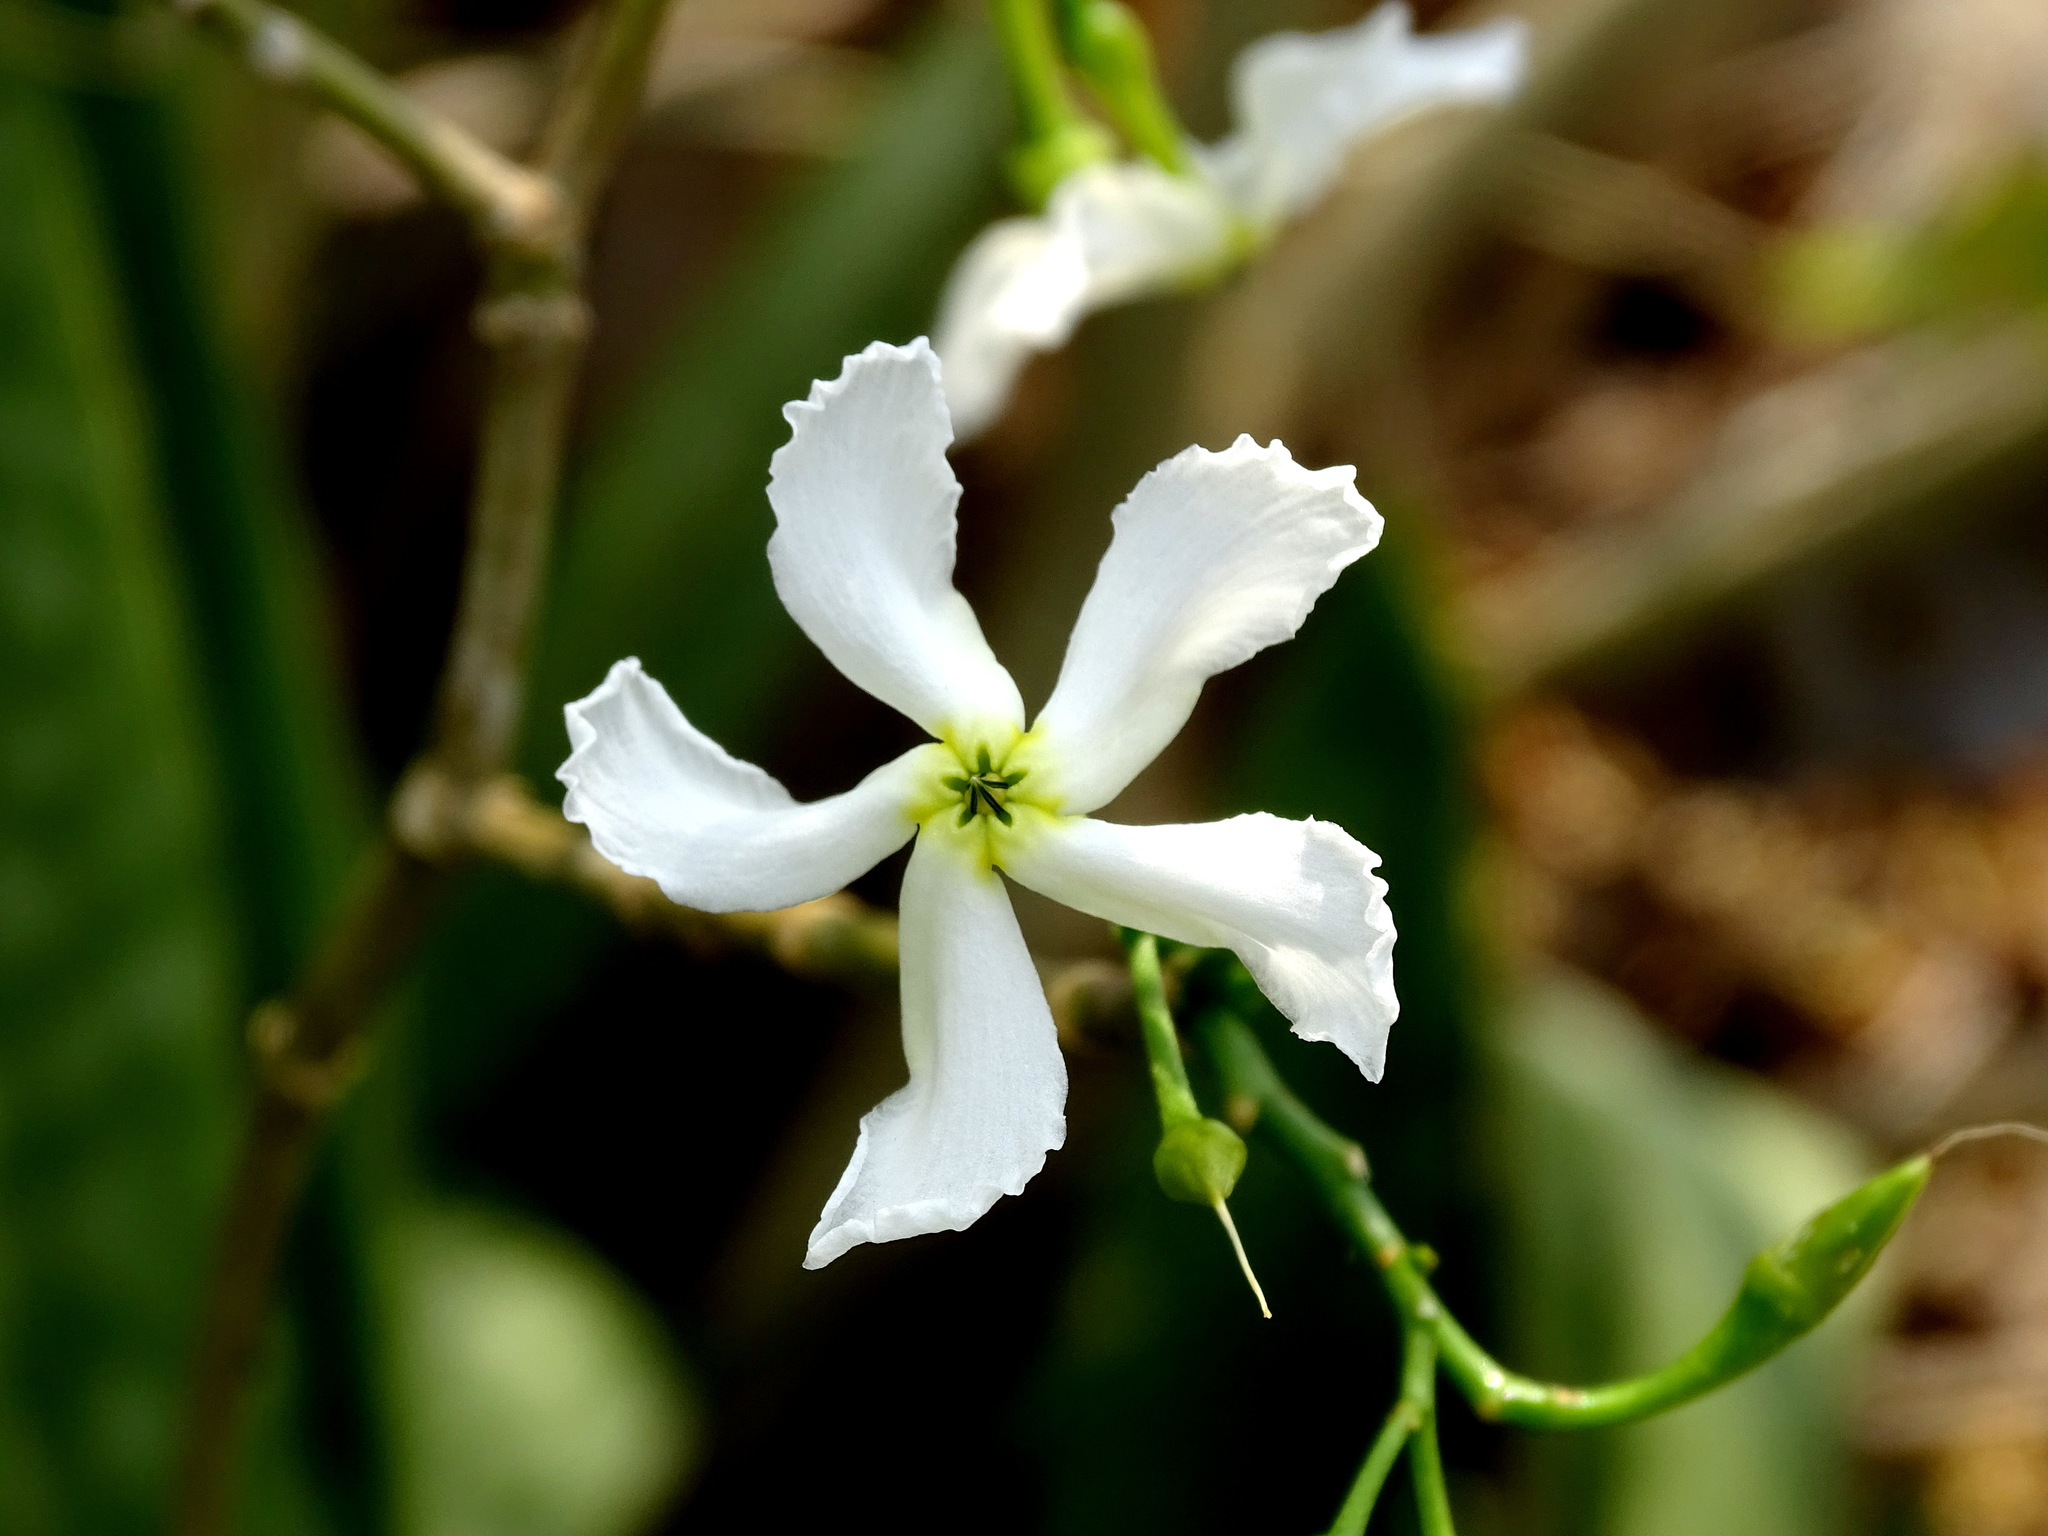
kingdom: Plantae
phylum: Tracheophyta
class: Magnoliopsida
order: Gentianales
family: Apocynaceae
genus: Tabernaemontana
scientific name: Tabernaemontana amygdalifolia
